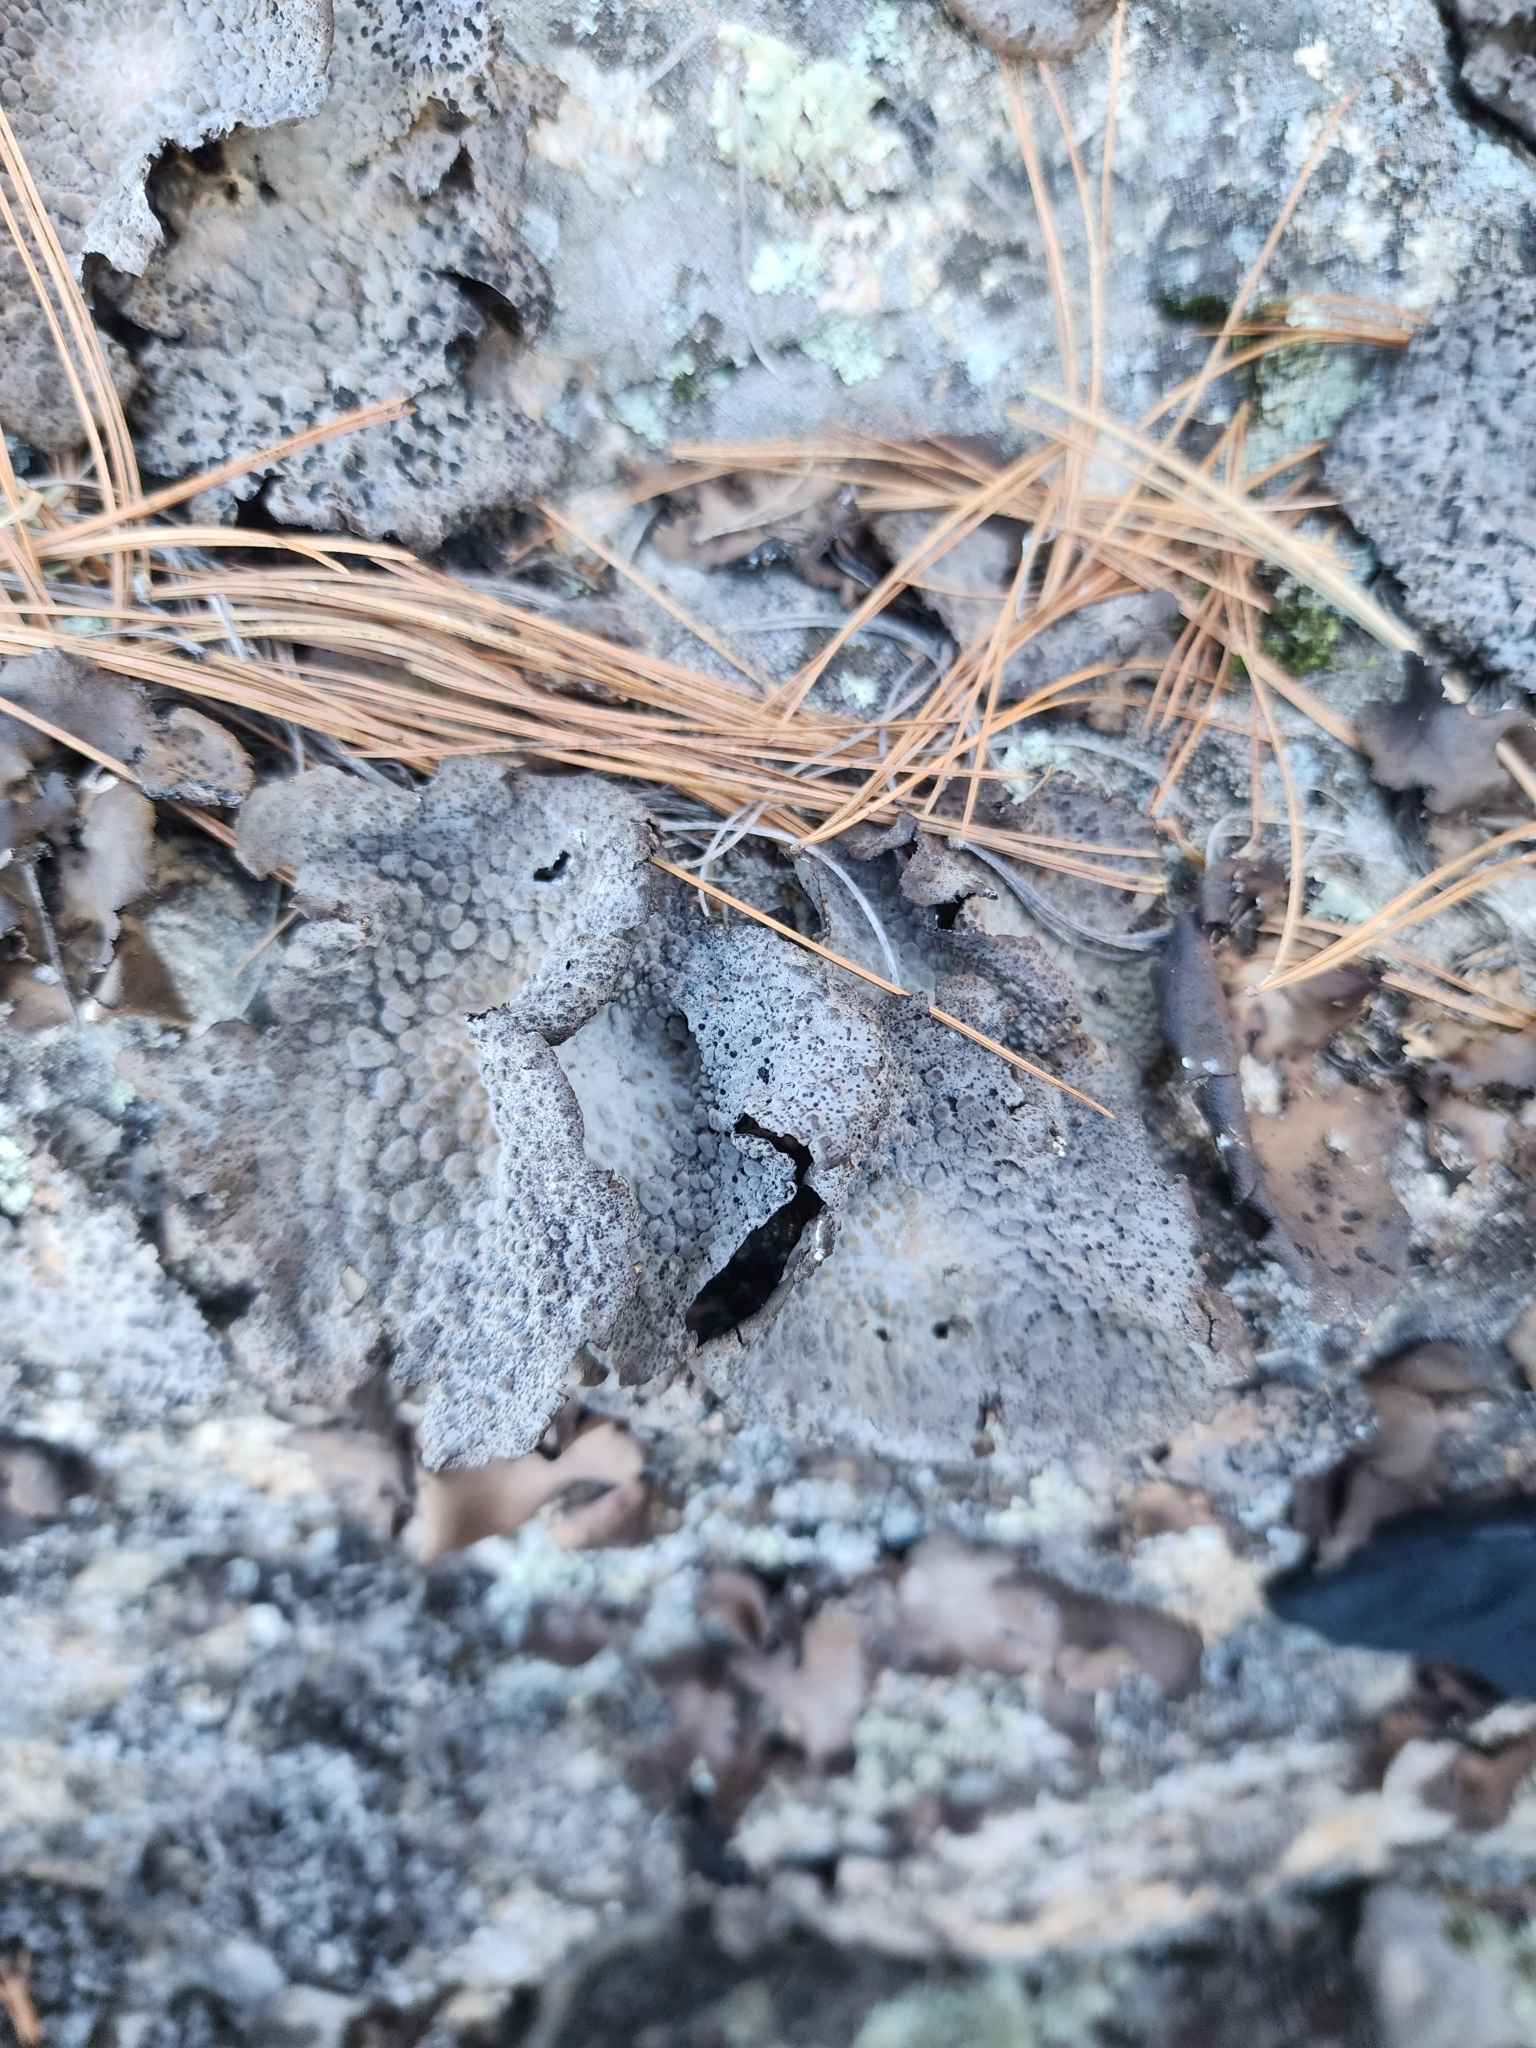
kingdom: Fungi
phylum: Ascomycota
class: Lecanoromycetes
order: Umbilicariales
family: Umbilicariaceae
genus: Lasallia
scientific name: Lasallia papulosa
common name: Common toadskin lichen
